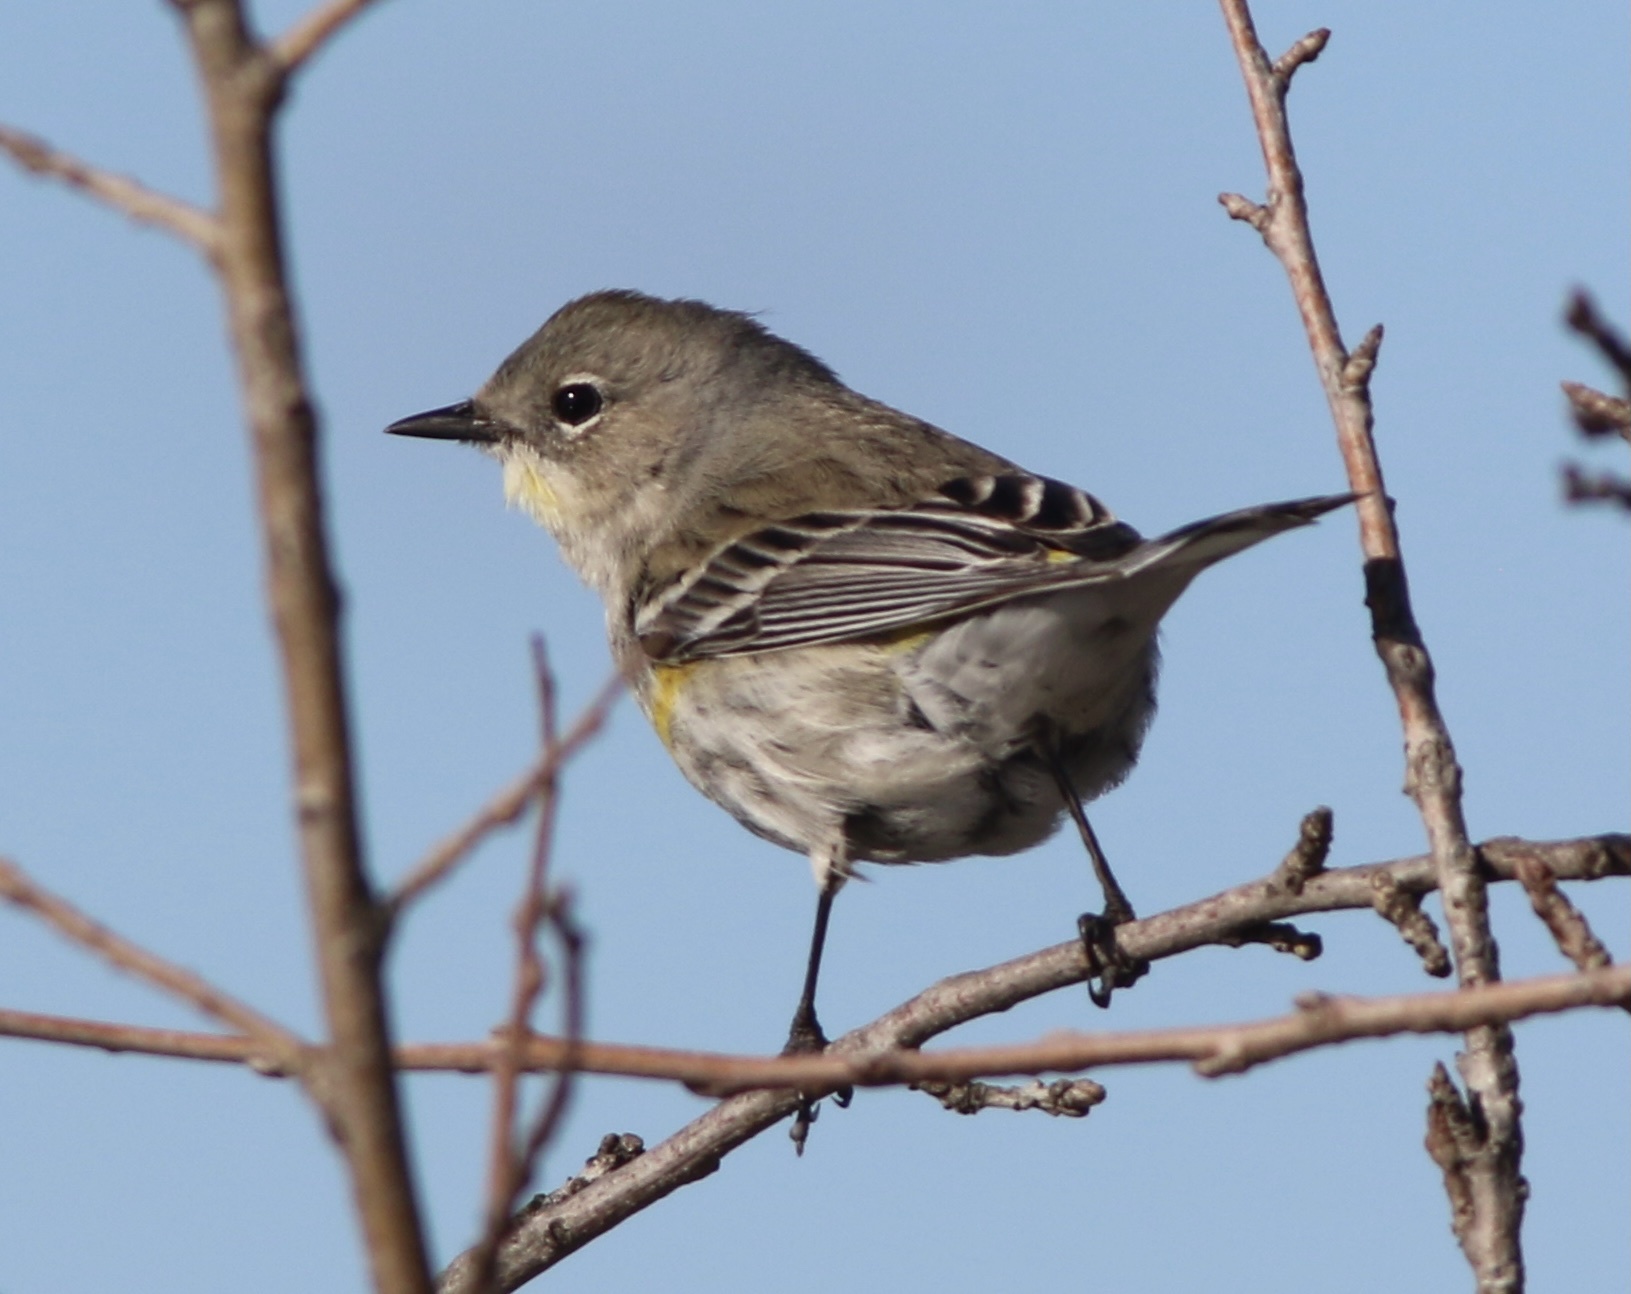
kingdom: Animalia
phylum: Chordata
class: Aves
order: Passeriformes
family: Parulidae
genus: Setophaga
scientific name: Setophaga coronata
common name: Myrtle warbler
